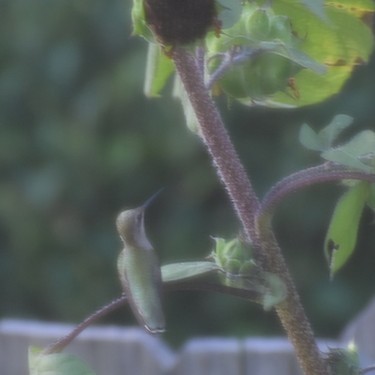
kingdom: Animalia
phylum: Chordata
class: Aves
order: Apodiformes
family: Trochilidae
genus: Archilochus
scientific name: Archilochus colubris
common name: Ruby-throated hummingbird
